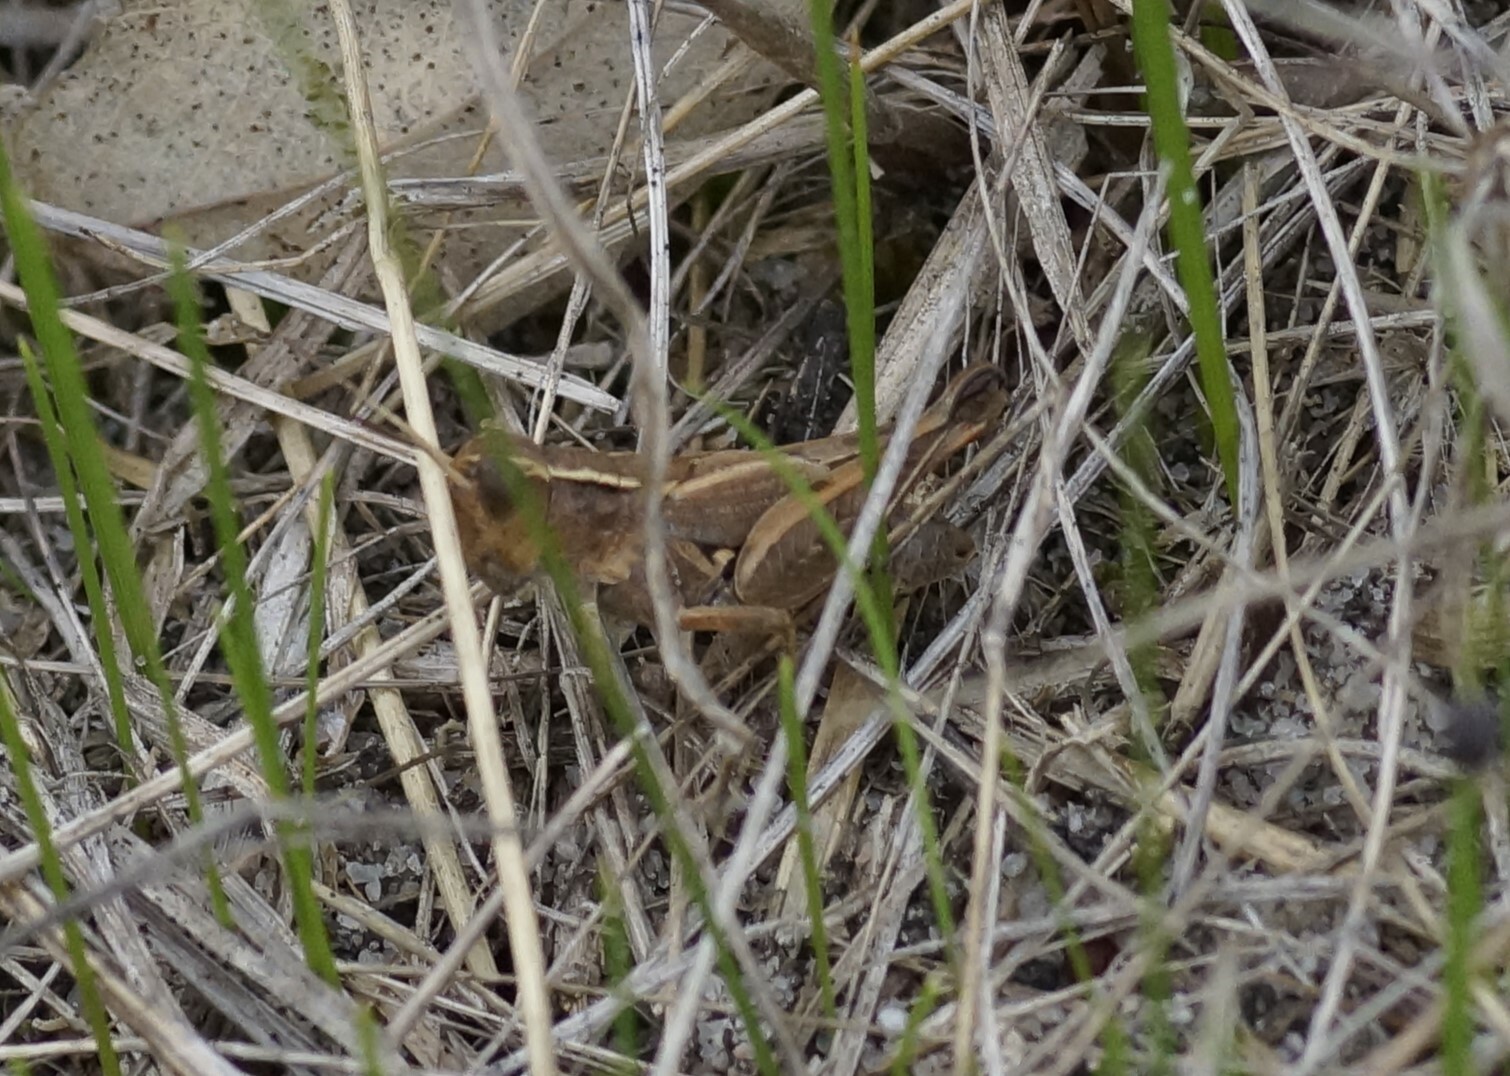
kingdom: Animalia
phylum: Arthropoda
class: Insecta
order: Orthoptera
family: Acrididae
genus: Phaulacridium
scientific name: Phaulacridium vittatum
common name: Wingless grasshopper
